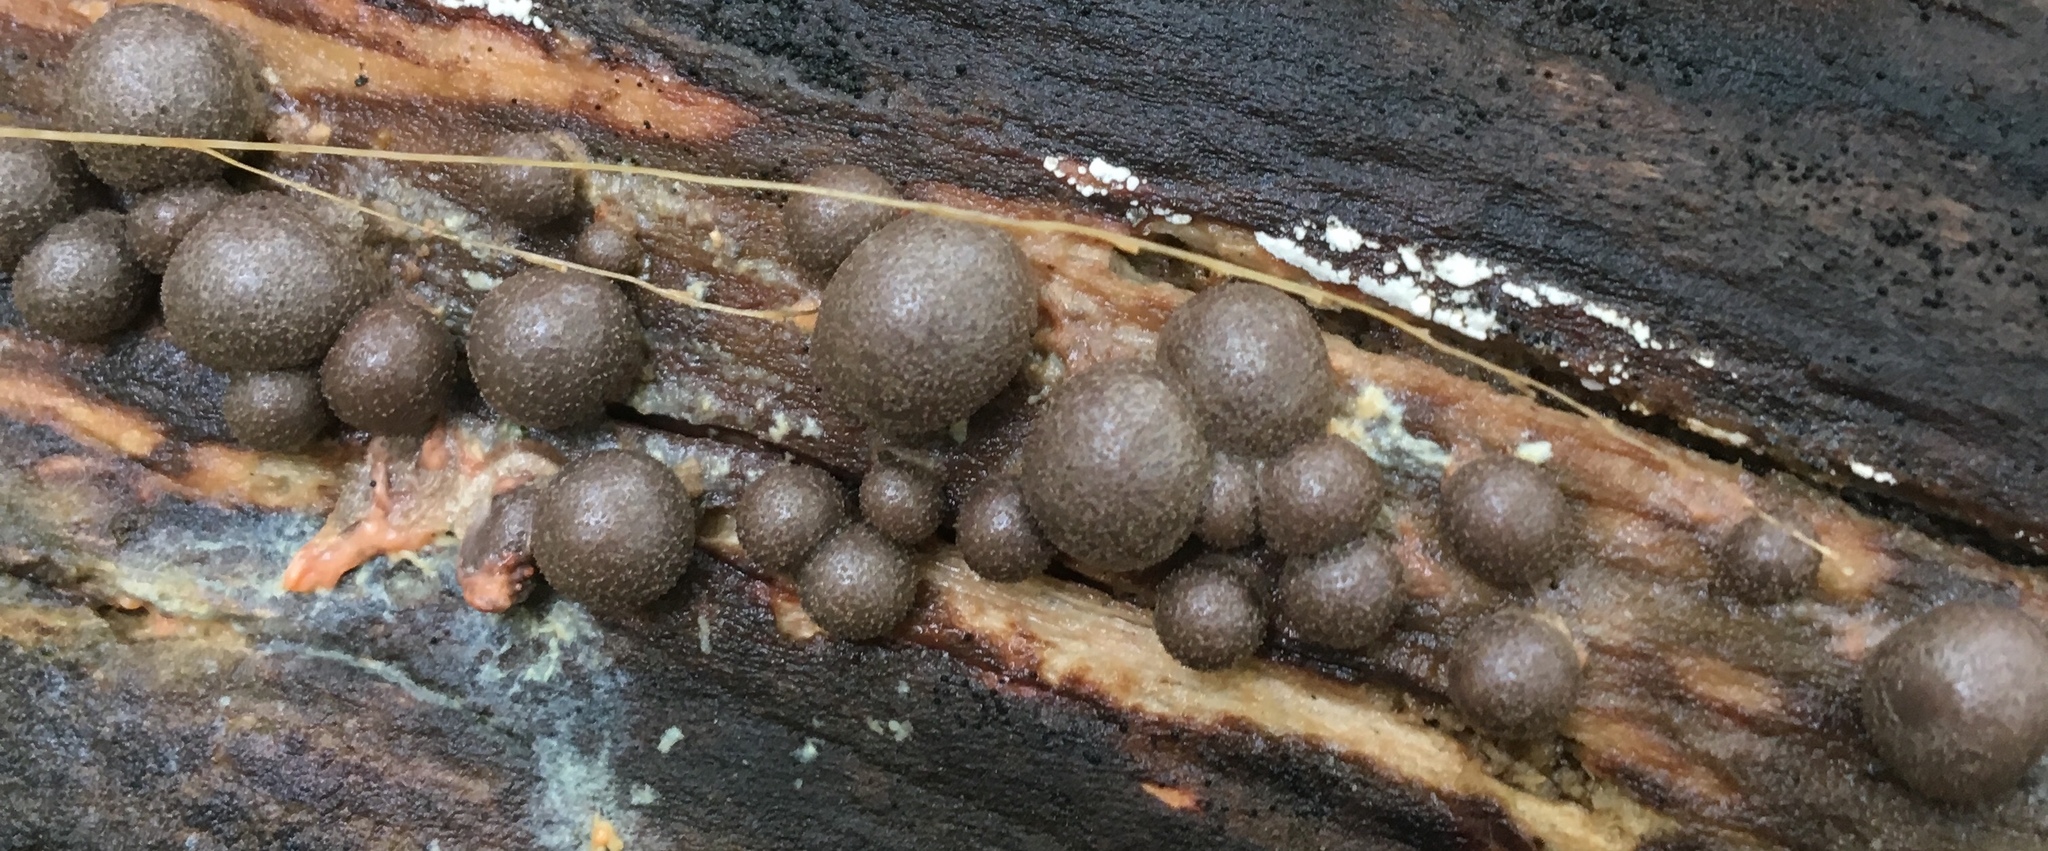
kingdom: Protozoa
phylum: Mycetozoa
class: Myxomycetes
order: Cribrariales
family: Tubiferaceae
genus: Lycogala
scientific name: Lycogala epidendrum
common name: Wolf's milk
